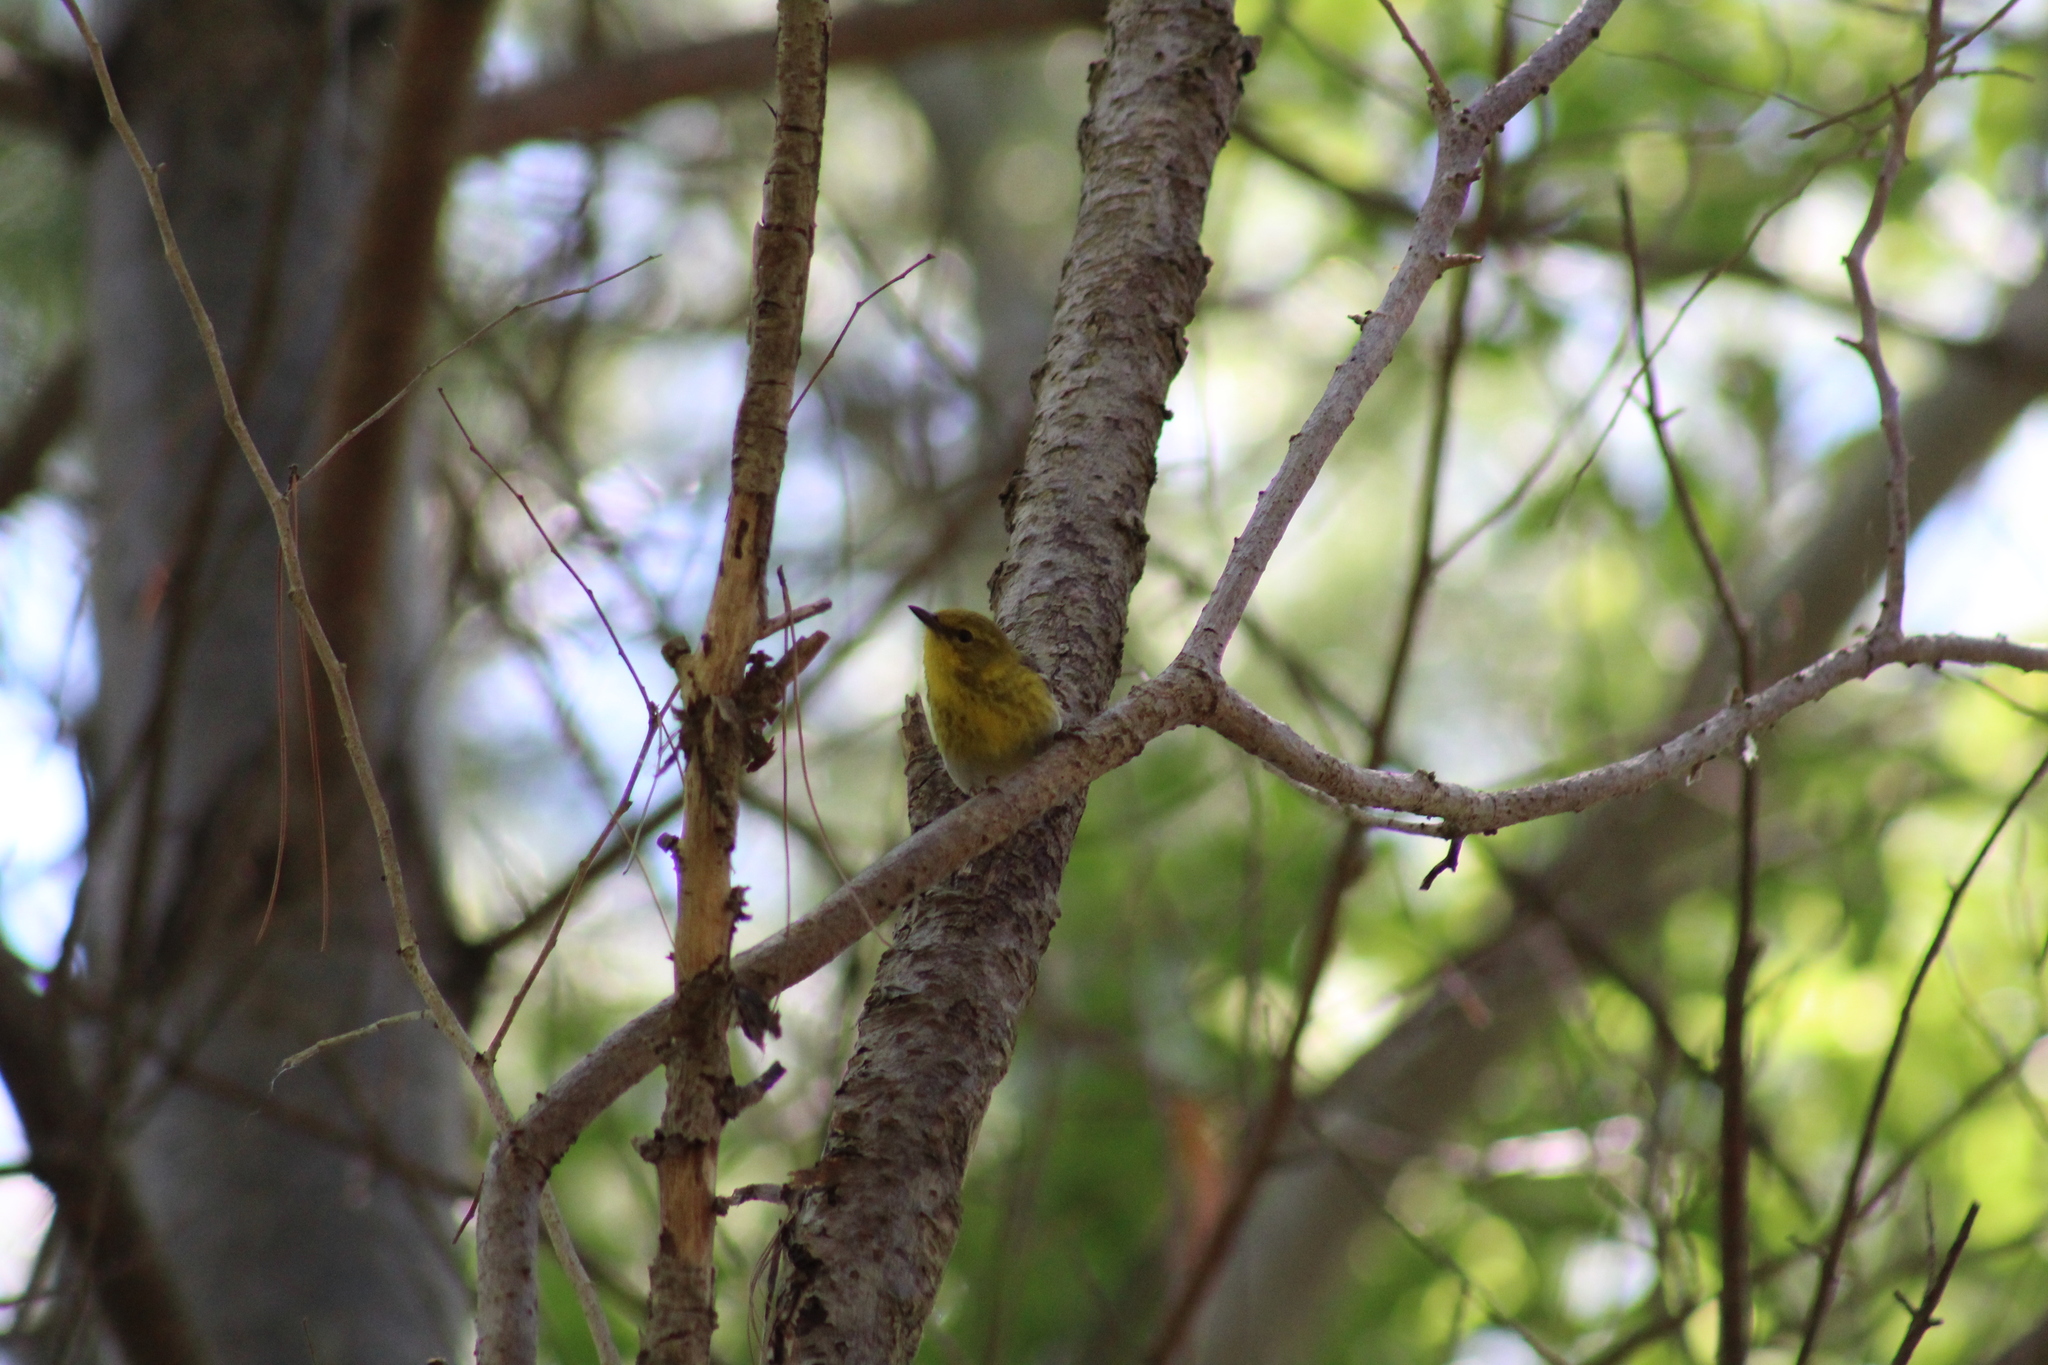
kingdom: Animalia
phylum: Chordata
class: Aves
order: Passeriformes
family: Parulidae
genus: Setophaga
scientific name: Setophaga pinus
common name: Pine warbler
